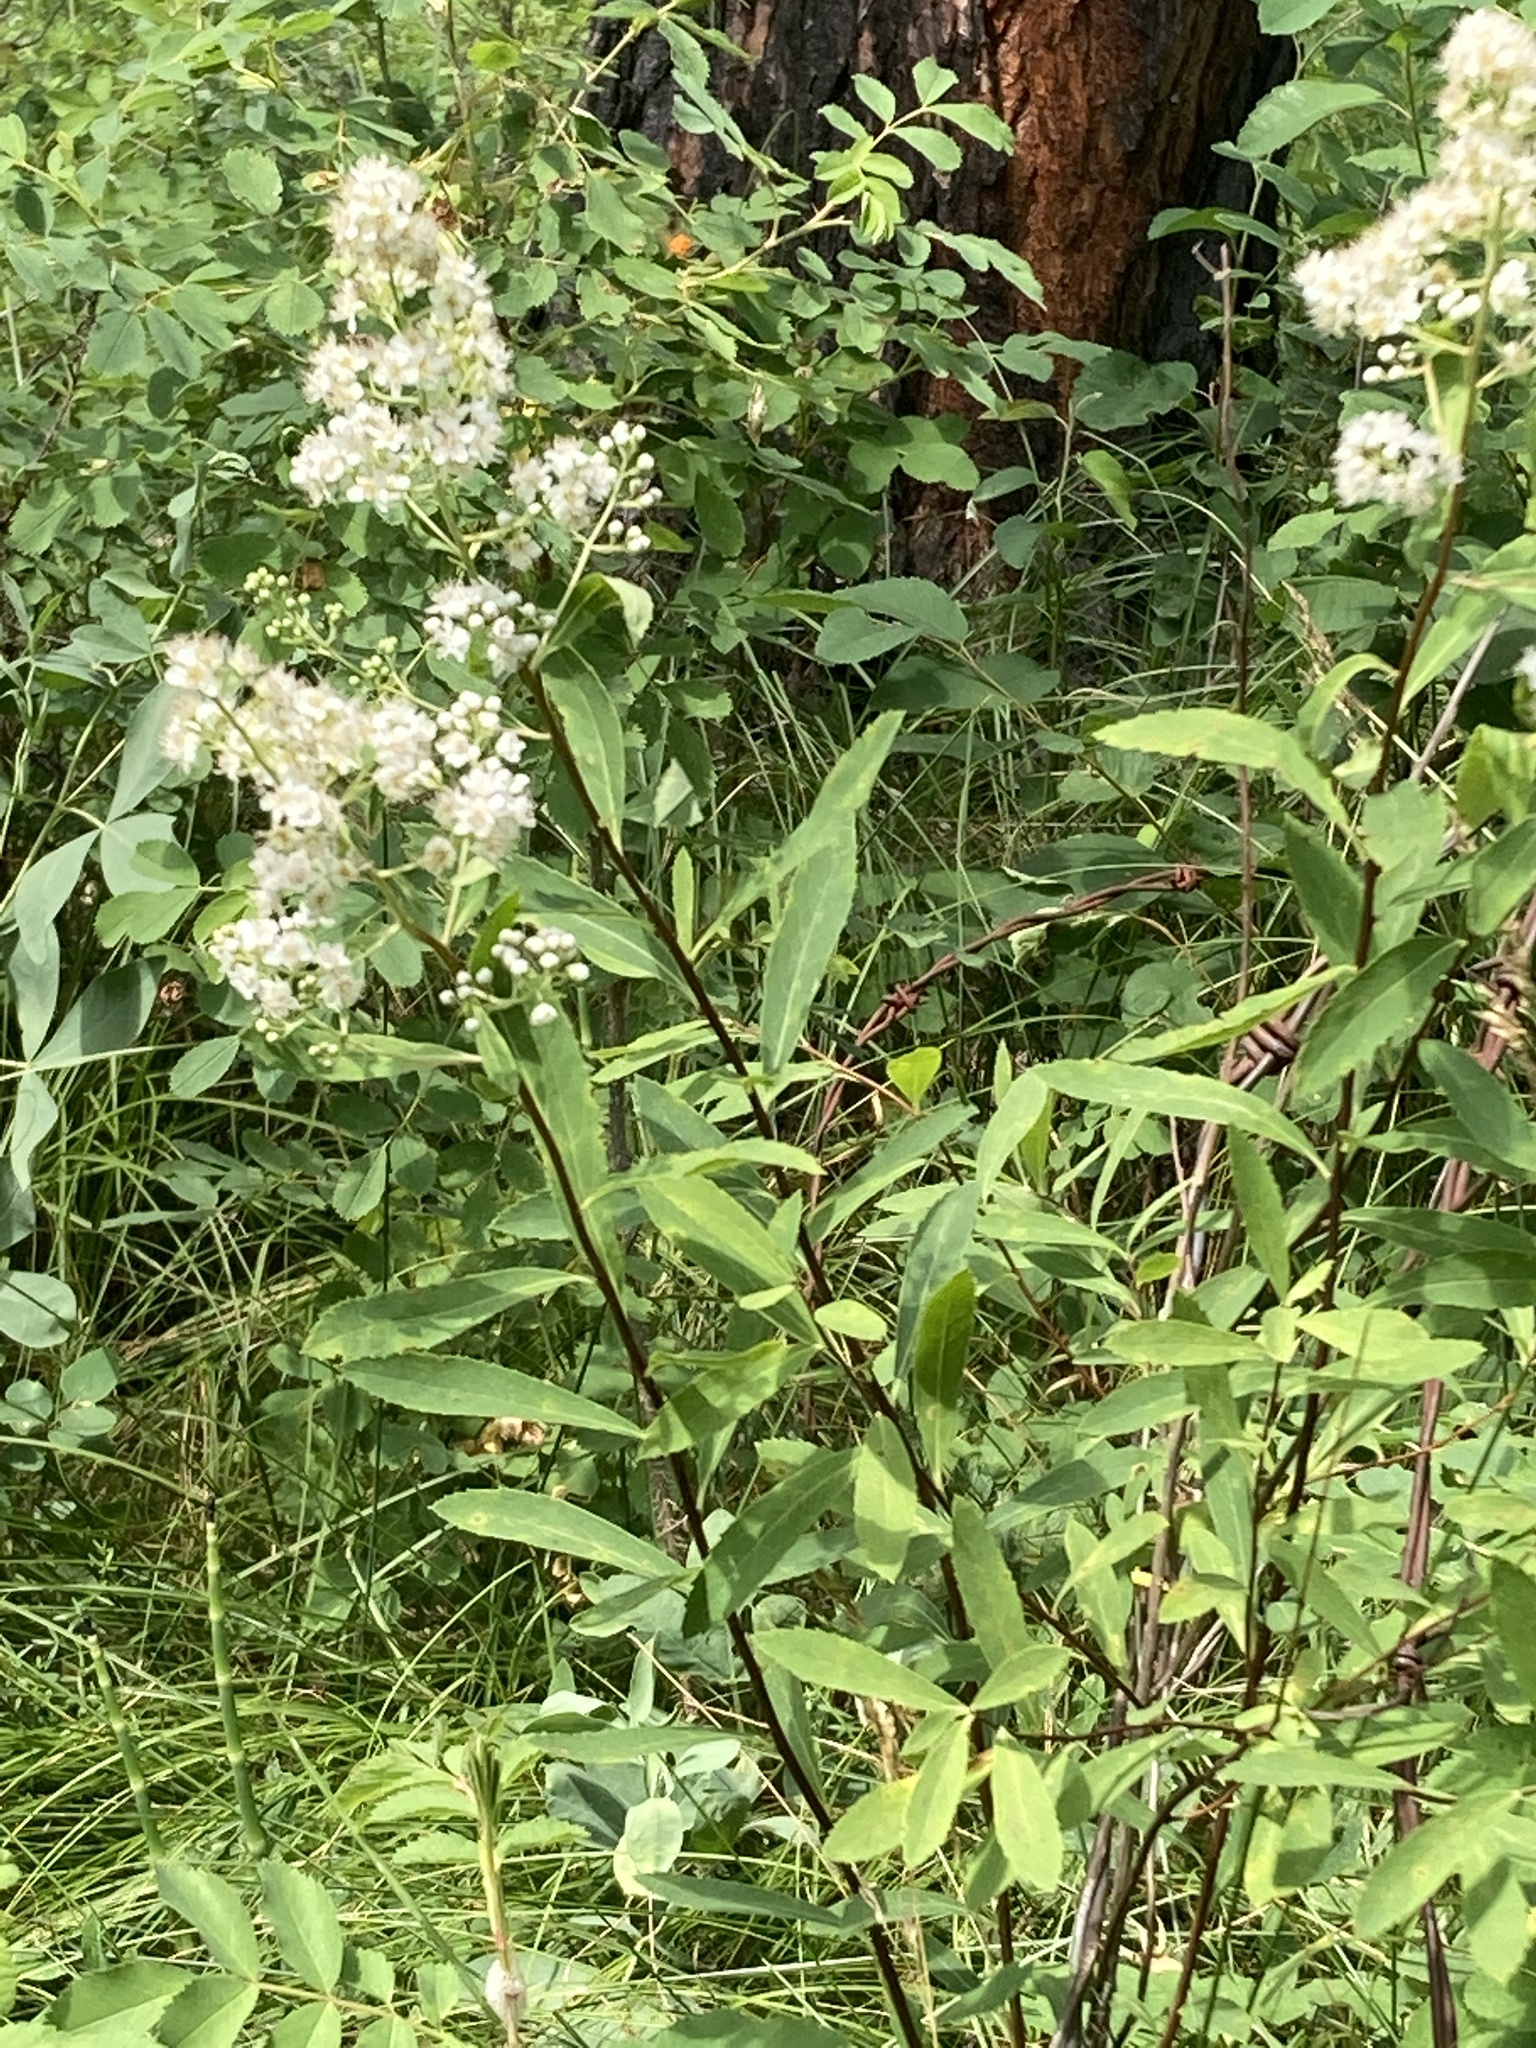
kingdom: Plantae
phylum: Tracheophyta
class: Magnoliopsida
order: Rosales
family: Rosaceae
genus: Spiraea
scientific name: Spiraea alba
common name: Pale bridewort
